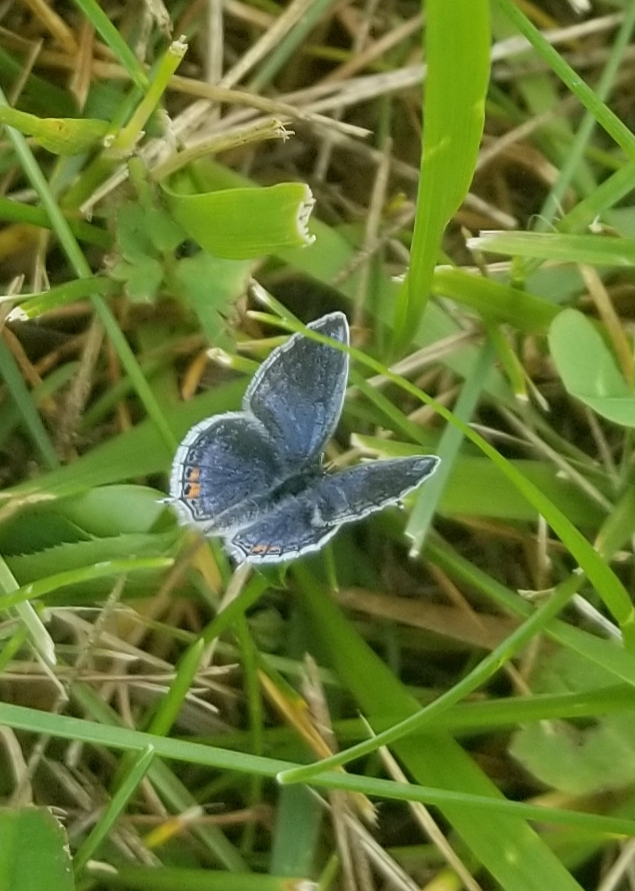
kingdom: Animalia
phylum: Arthropoda
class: Insecta
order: Lepidoptera
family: Lycaenidae
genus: Elkalyce
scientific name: Elkalyce comyntas
